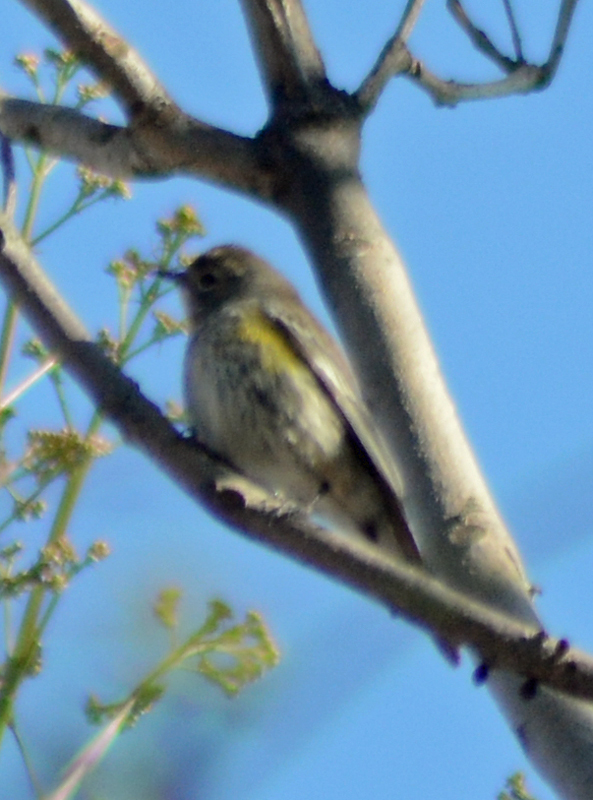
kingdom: Animalia
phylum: Chordata
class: Aves
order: Passeriformes
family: Parulidae
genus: Setophaga
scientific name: Setophaga coronata
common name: Myrtle warbler
